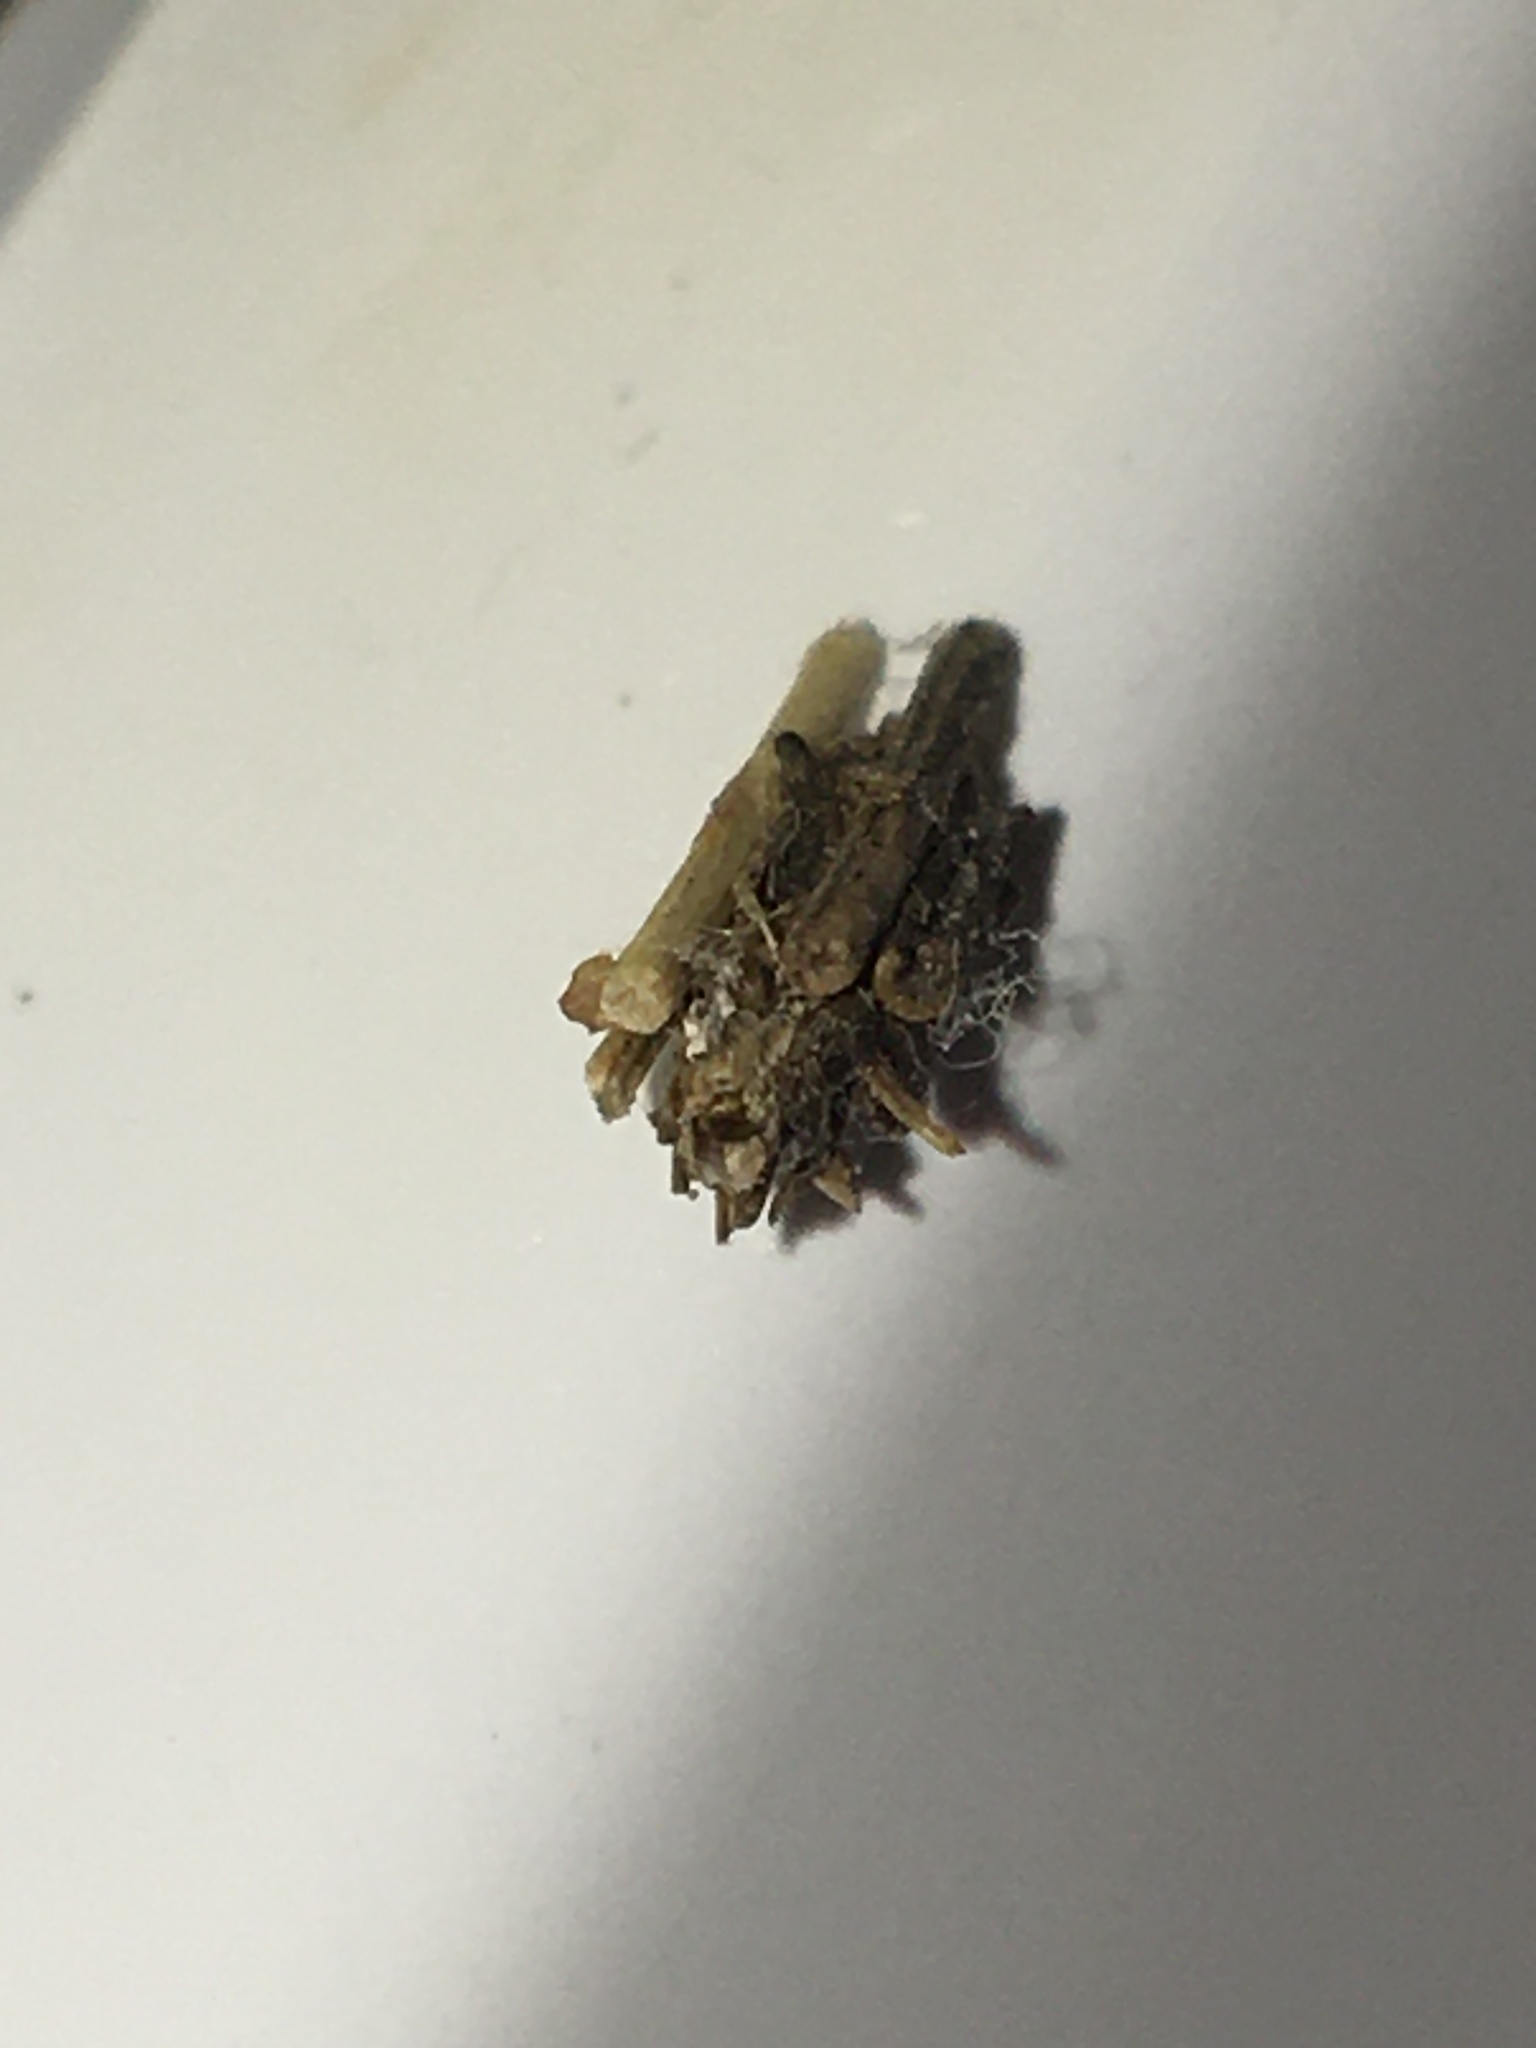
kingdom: Animalia
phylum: Arthropoda
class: Insecta
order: Lepidoptera
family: Psychidae
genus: Psyche
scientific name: Psyche casta
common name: Common sweep
